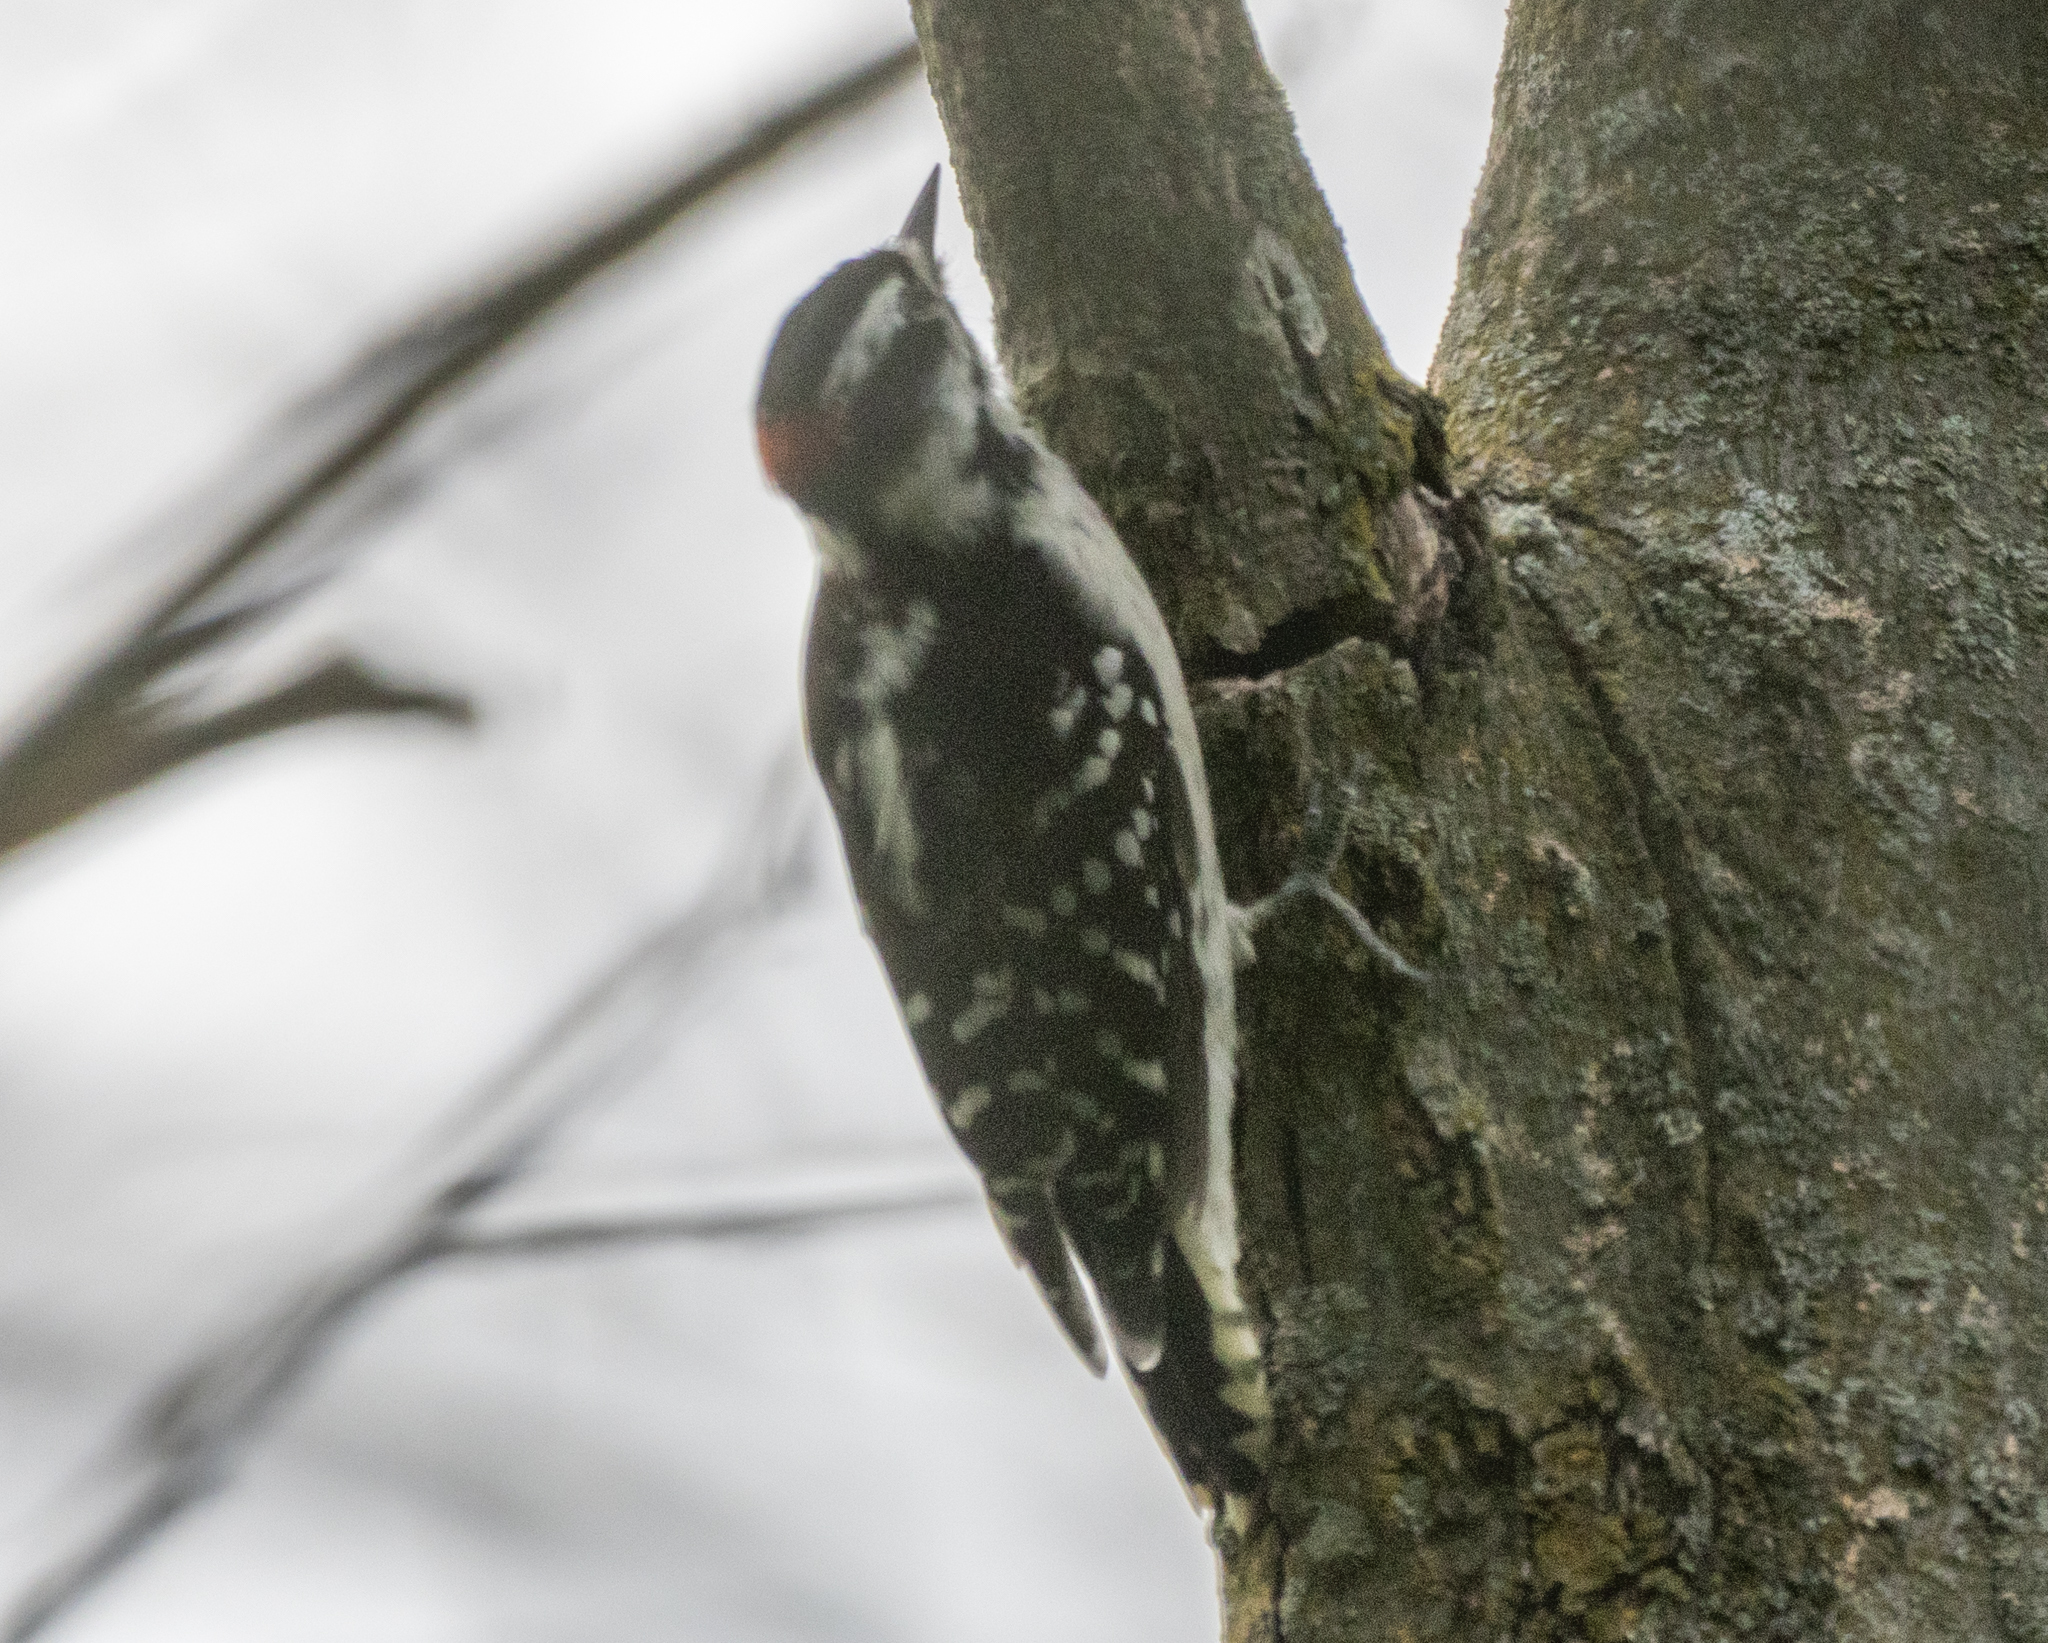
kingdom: Animalia
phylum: Chordata
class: Aves
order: Piciformes
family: Picidae
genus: Dryobates
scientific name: Dryobates pubescens
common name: Downy woodpecker
